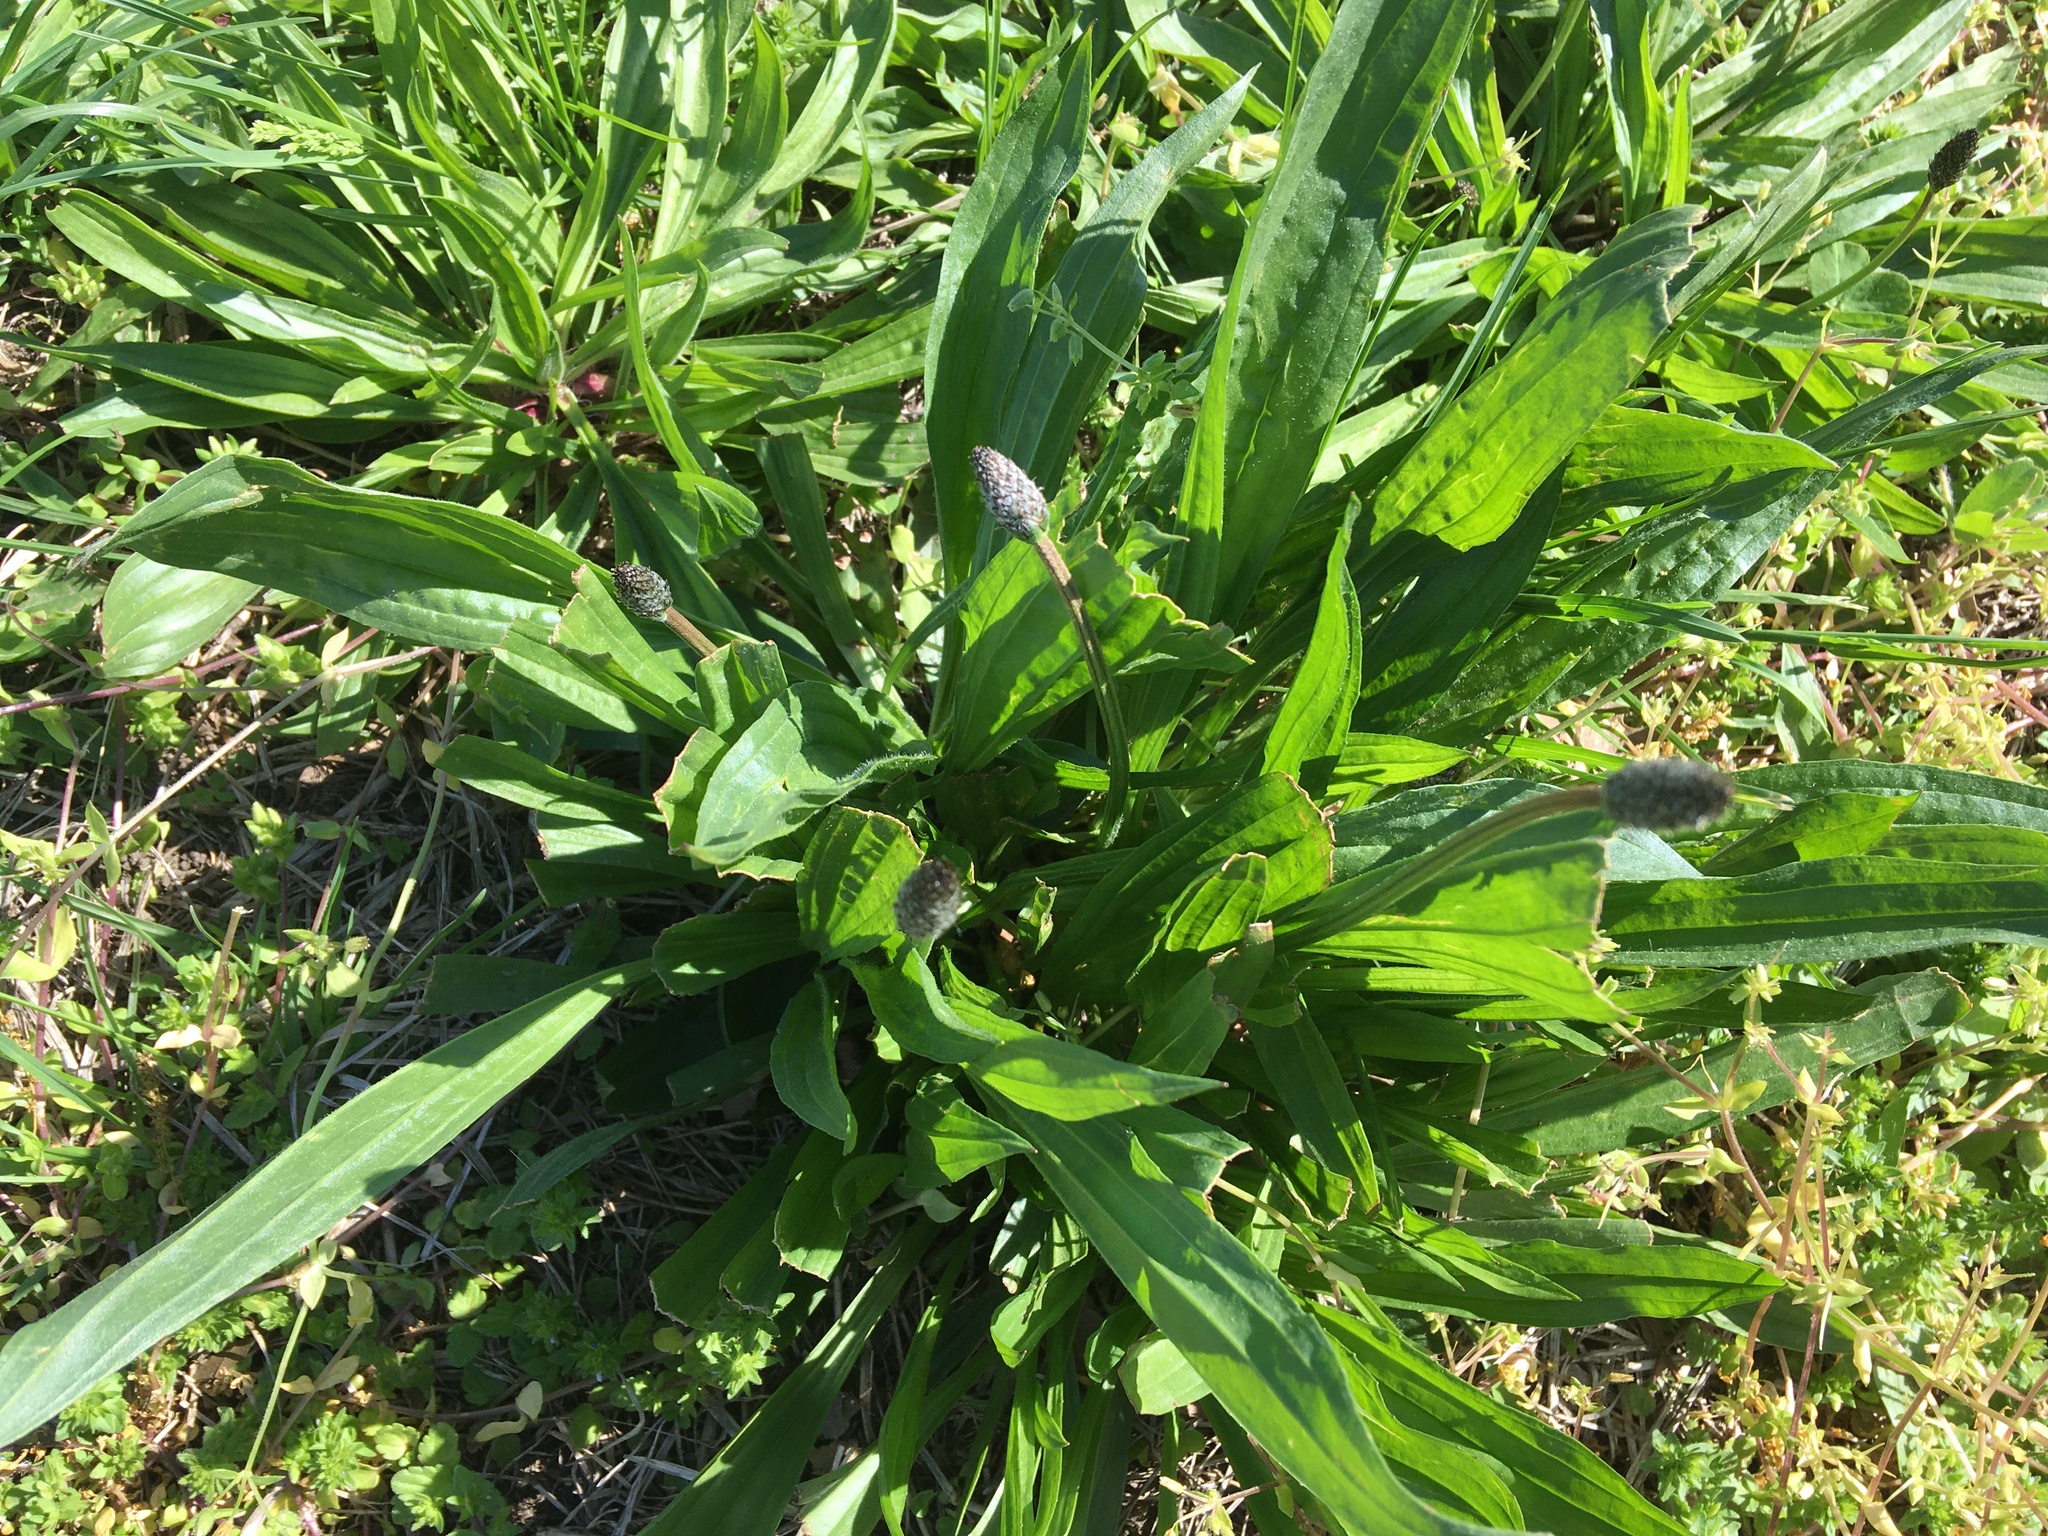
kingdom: Plantae
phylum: Tracheophyta
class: Magnoliopsida
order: Lamiales
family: Plantaginaceae
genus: Plantago
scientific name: Plantago lanceolata
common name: Ribwort plantain
